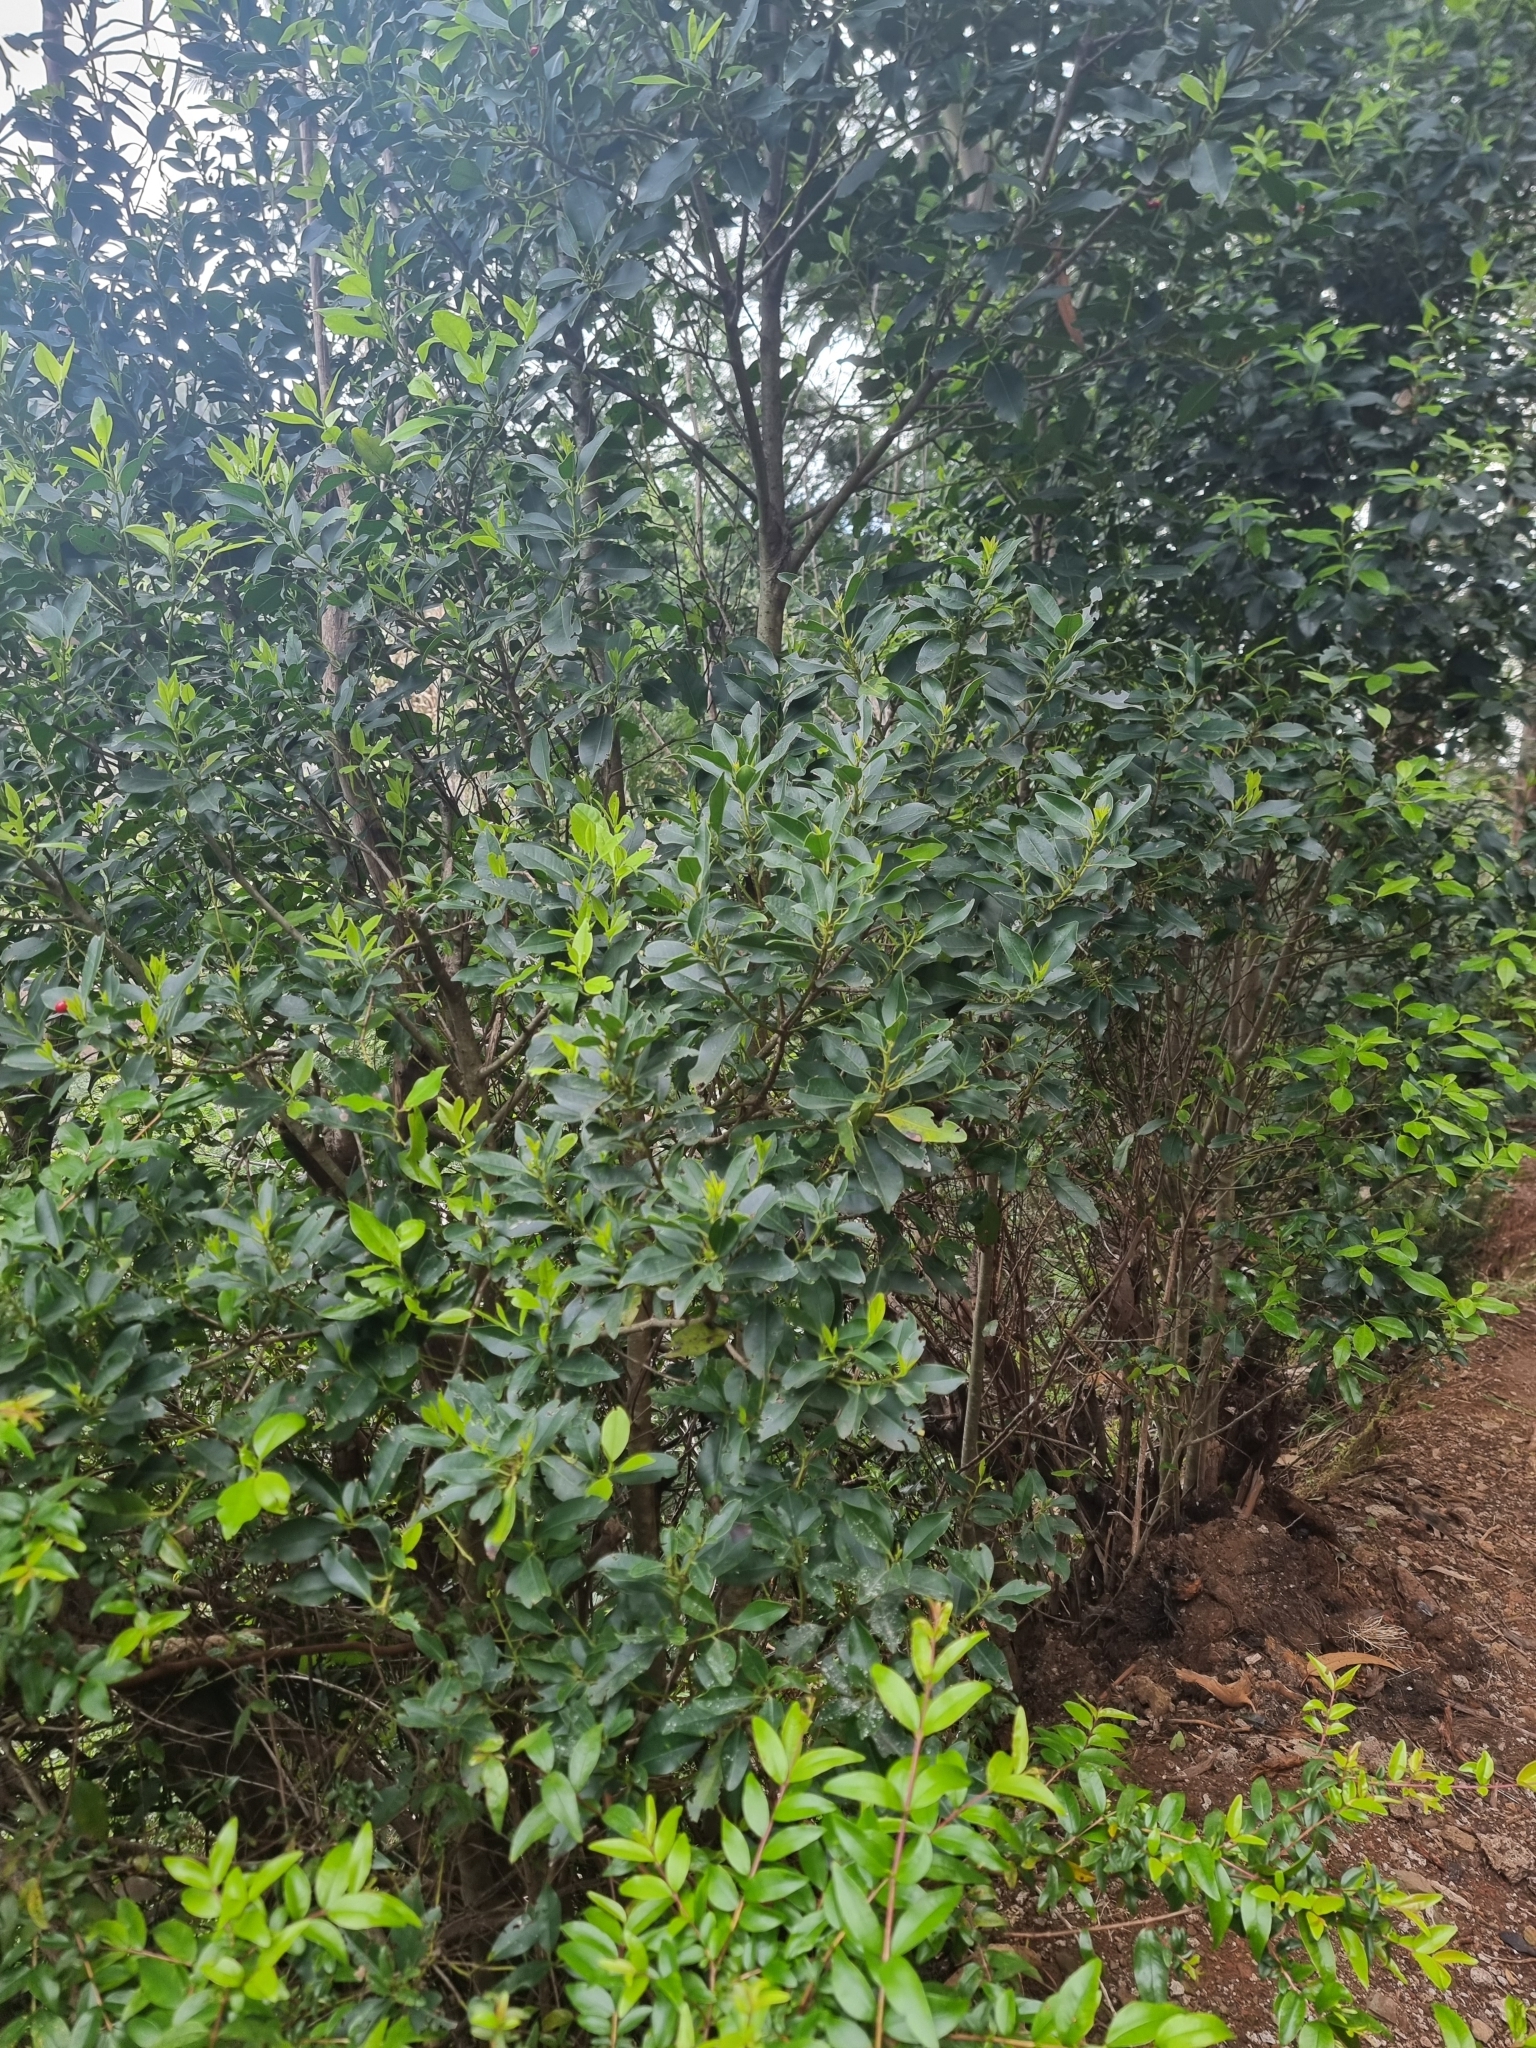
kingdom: Plantae
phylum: Tracheophyta
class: Magnoliopsida
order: Aquifoliales
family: Aquifoliaceae
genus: Ilex
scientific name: Ilex canariensis
